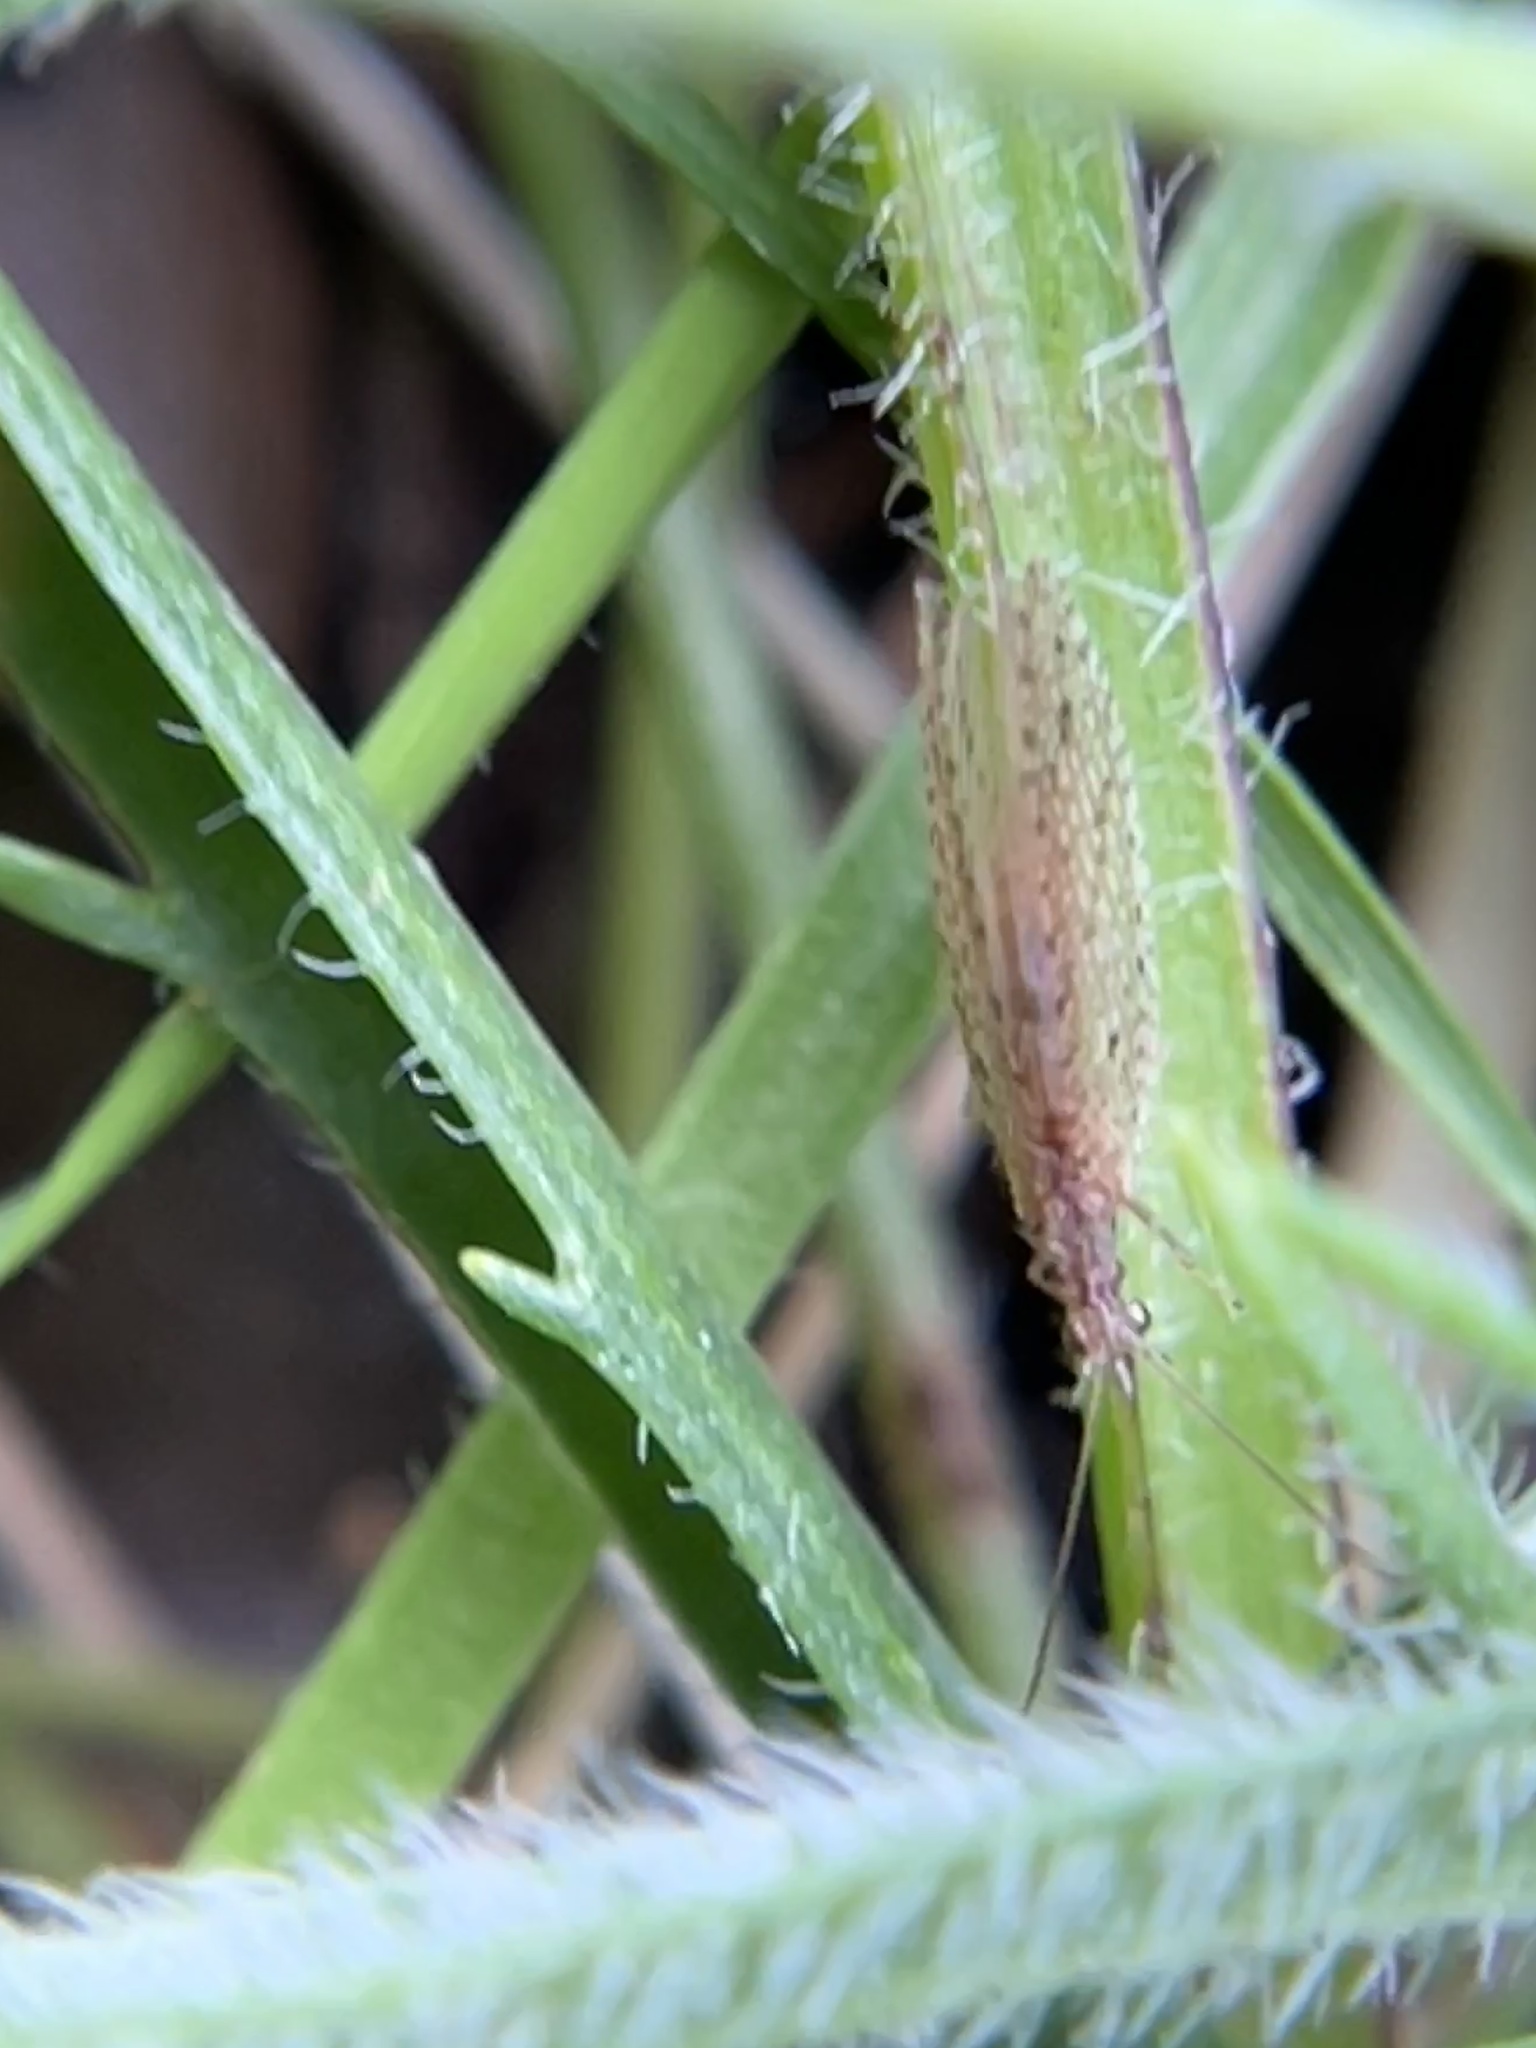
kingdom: Animalia
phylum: Arthropoda
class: Insecta
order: Neuroptera
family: Hemerobiidae
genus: Micromus
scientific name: Micromus tasmaniae
